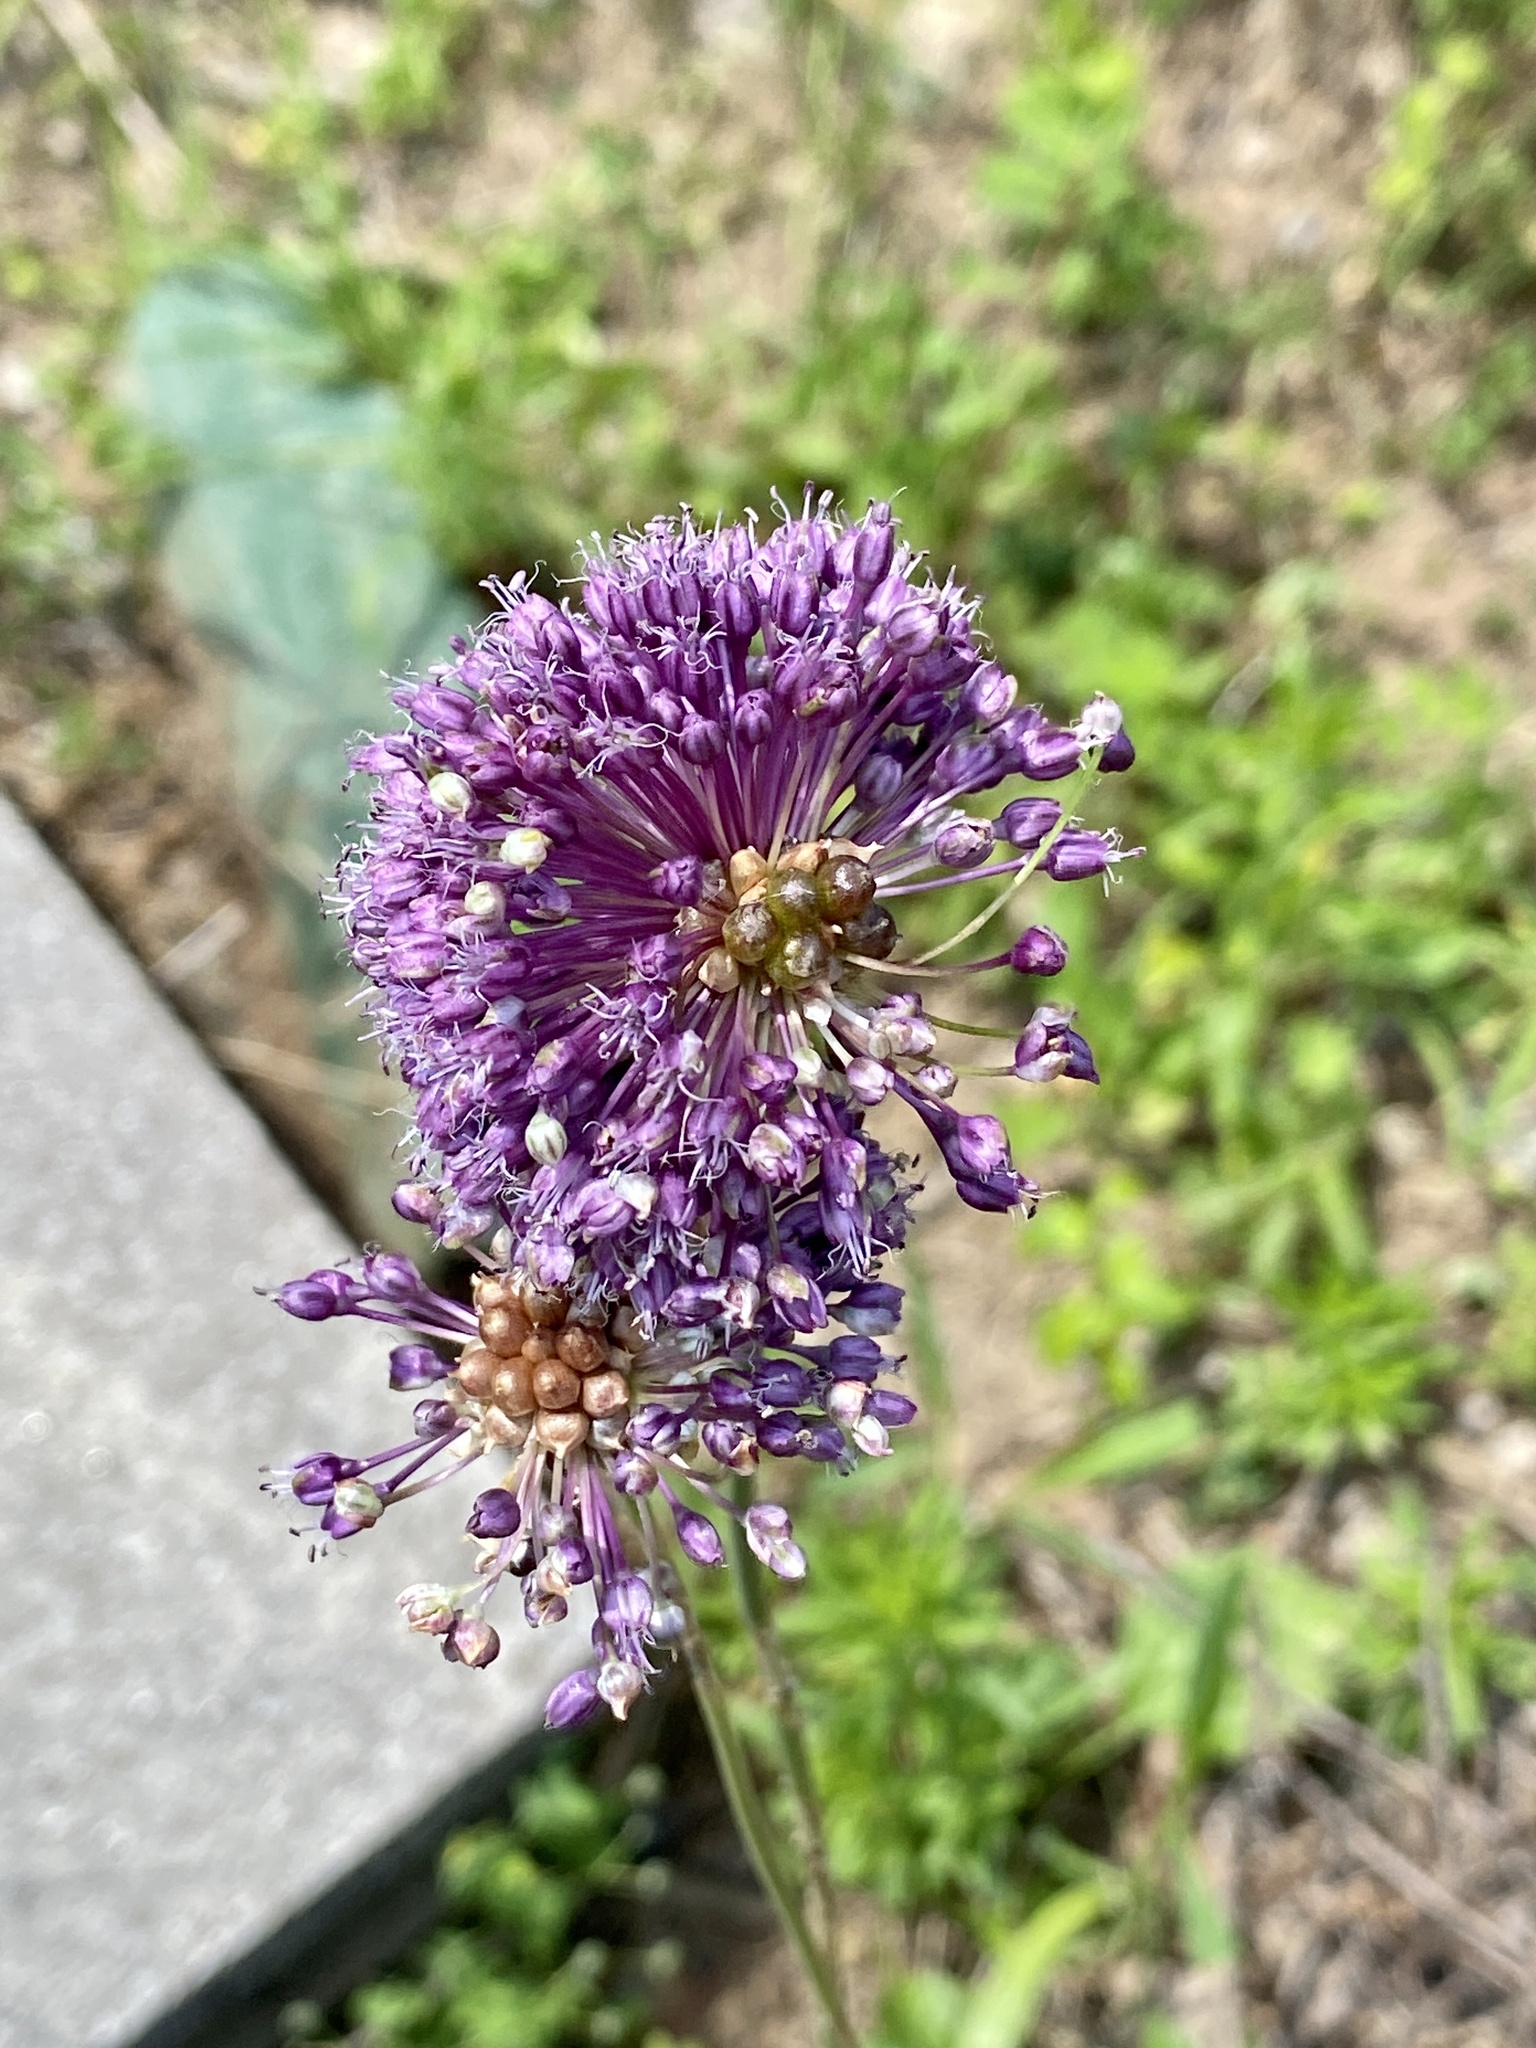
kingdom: Plantae
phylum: Tracheophyta
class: Liliopsida
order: Asparagales
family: Amaryllidaceae
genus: Allium
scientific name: Allium vineale
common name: Crow garlic
